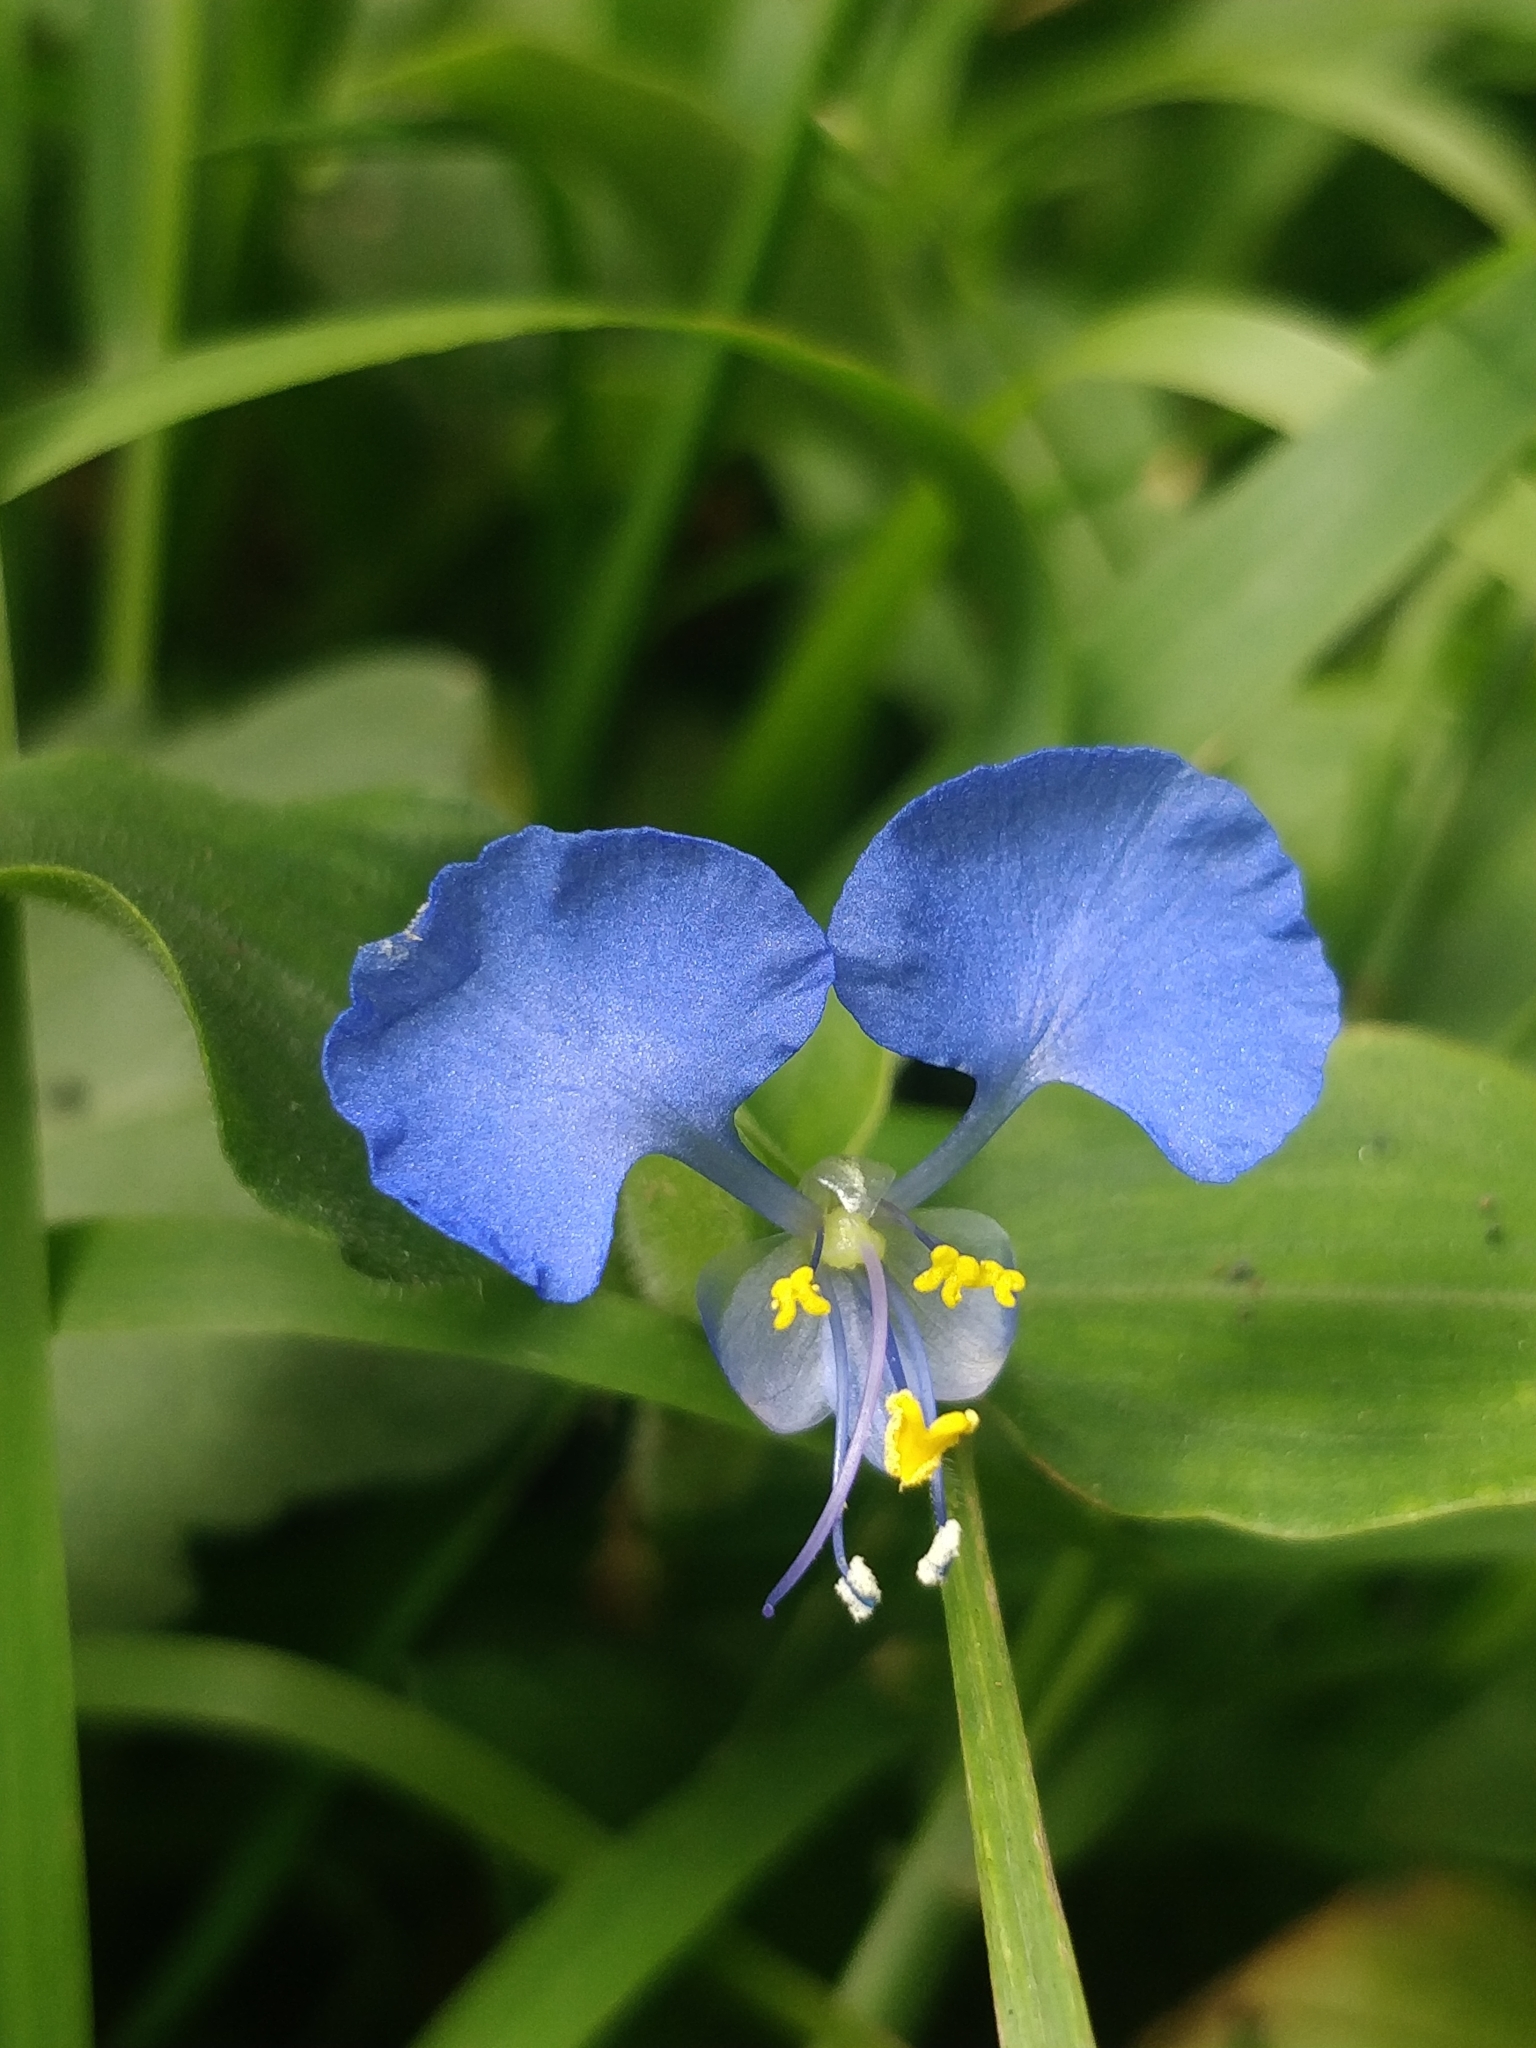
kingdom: Plantae
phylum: Tracheophyta
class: Liliopsida
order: Commelinales
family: Commelinaceae
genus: Commelina
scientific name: Commelina benghalensis
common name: Jio
